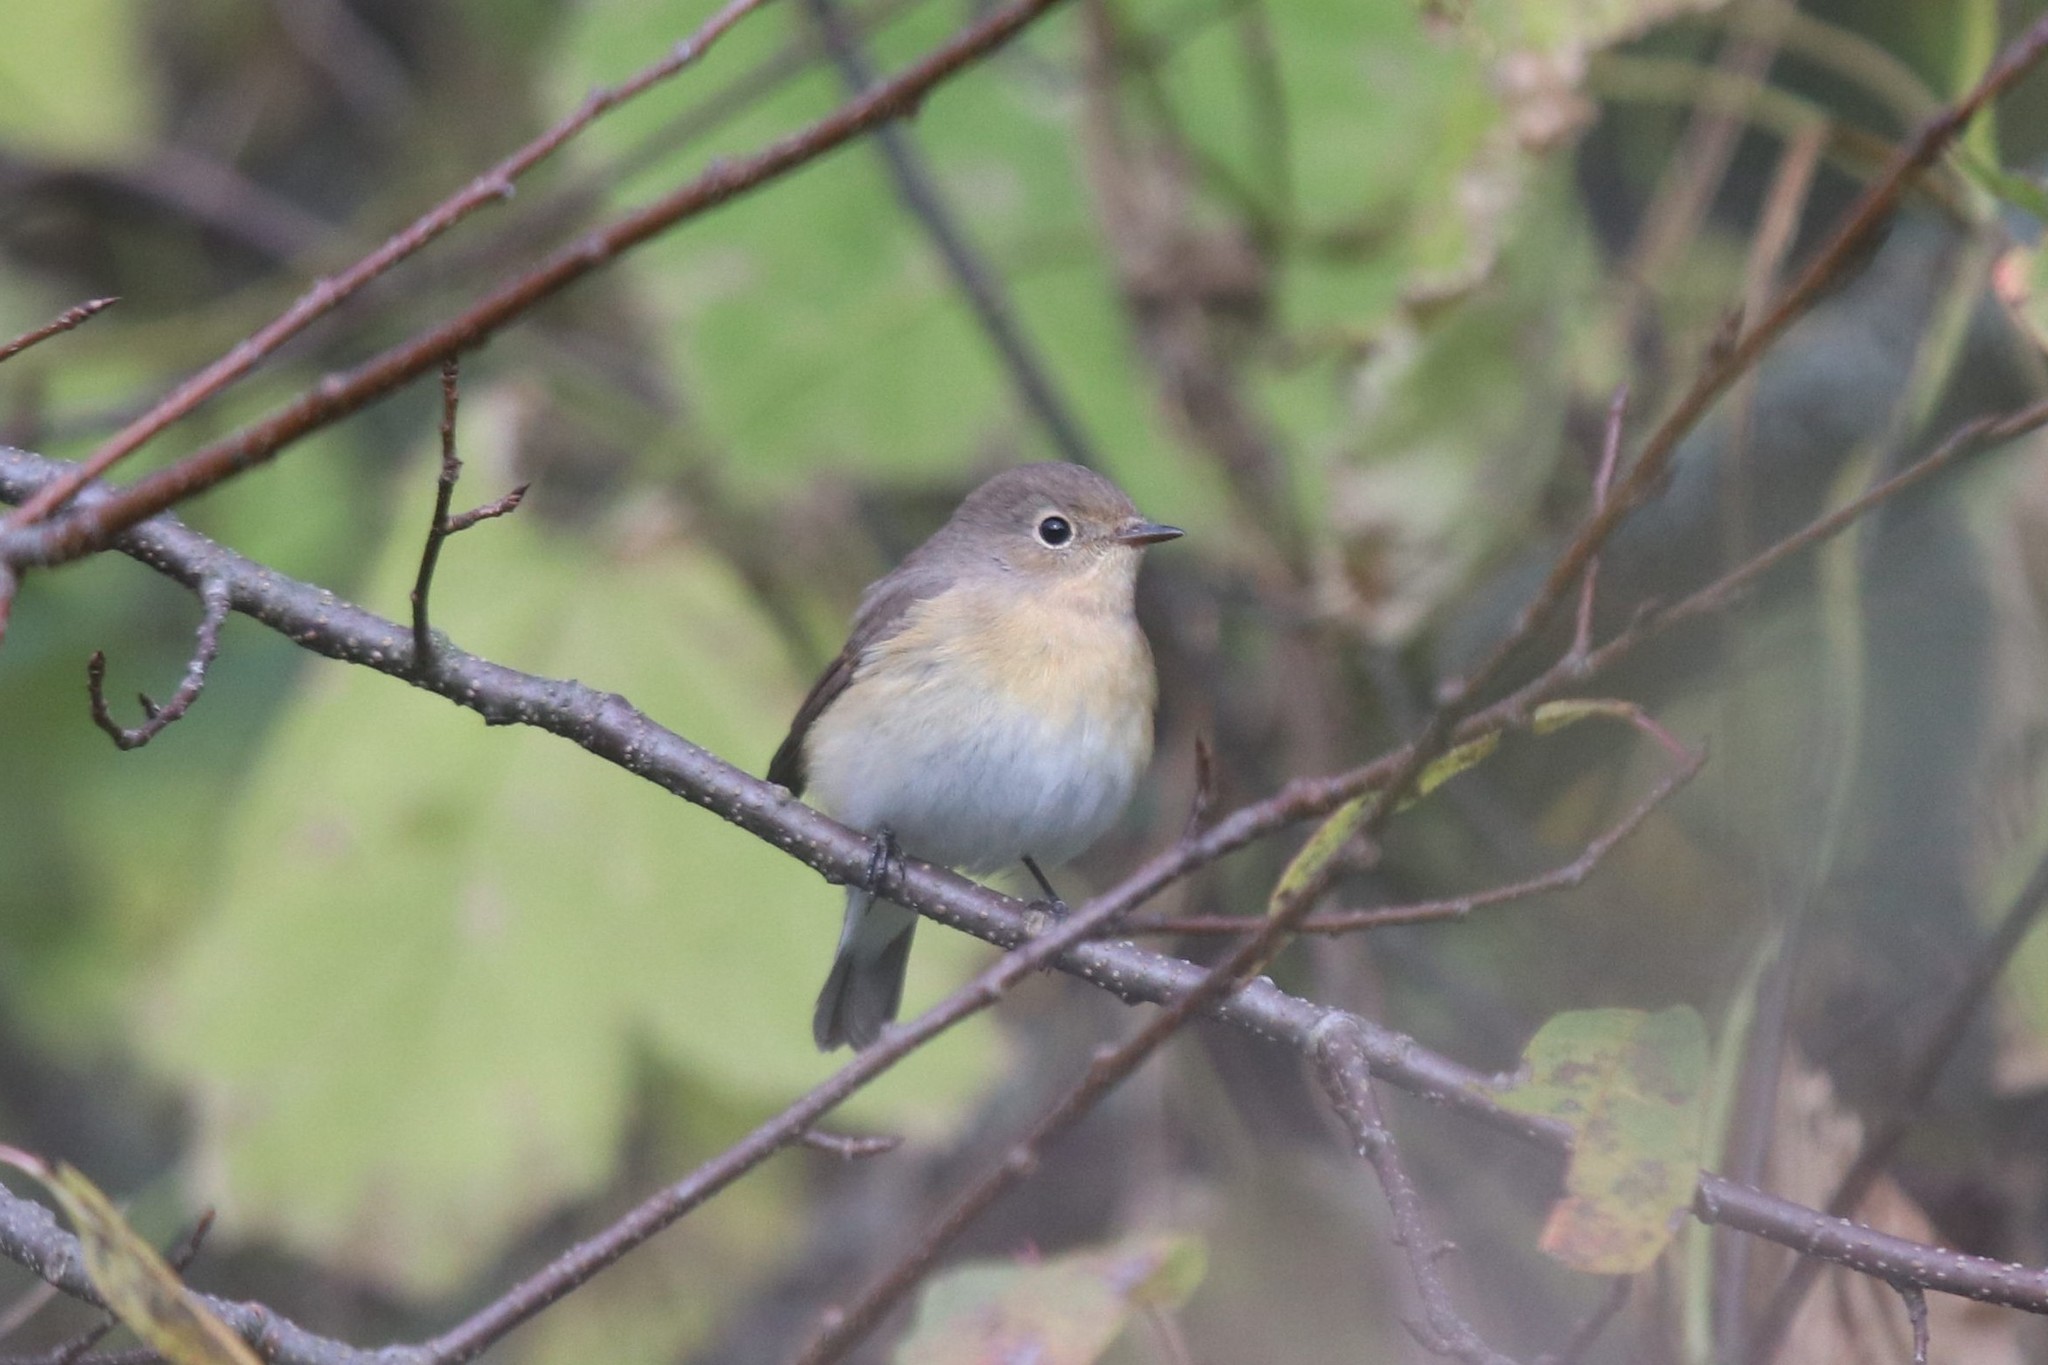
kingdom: Animalia
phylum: Chordata
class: Aves
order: Passeriformes
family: Muscicapidae
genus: Ficedula
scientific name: Ficedula parva
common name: Red-breasted flycatcher
